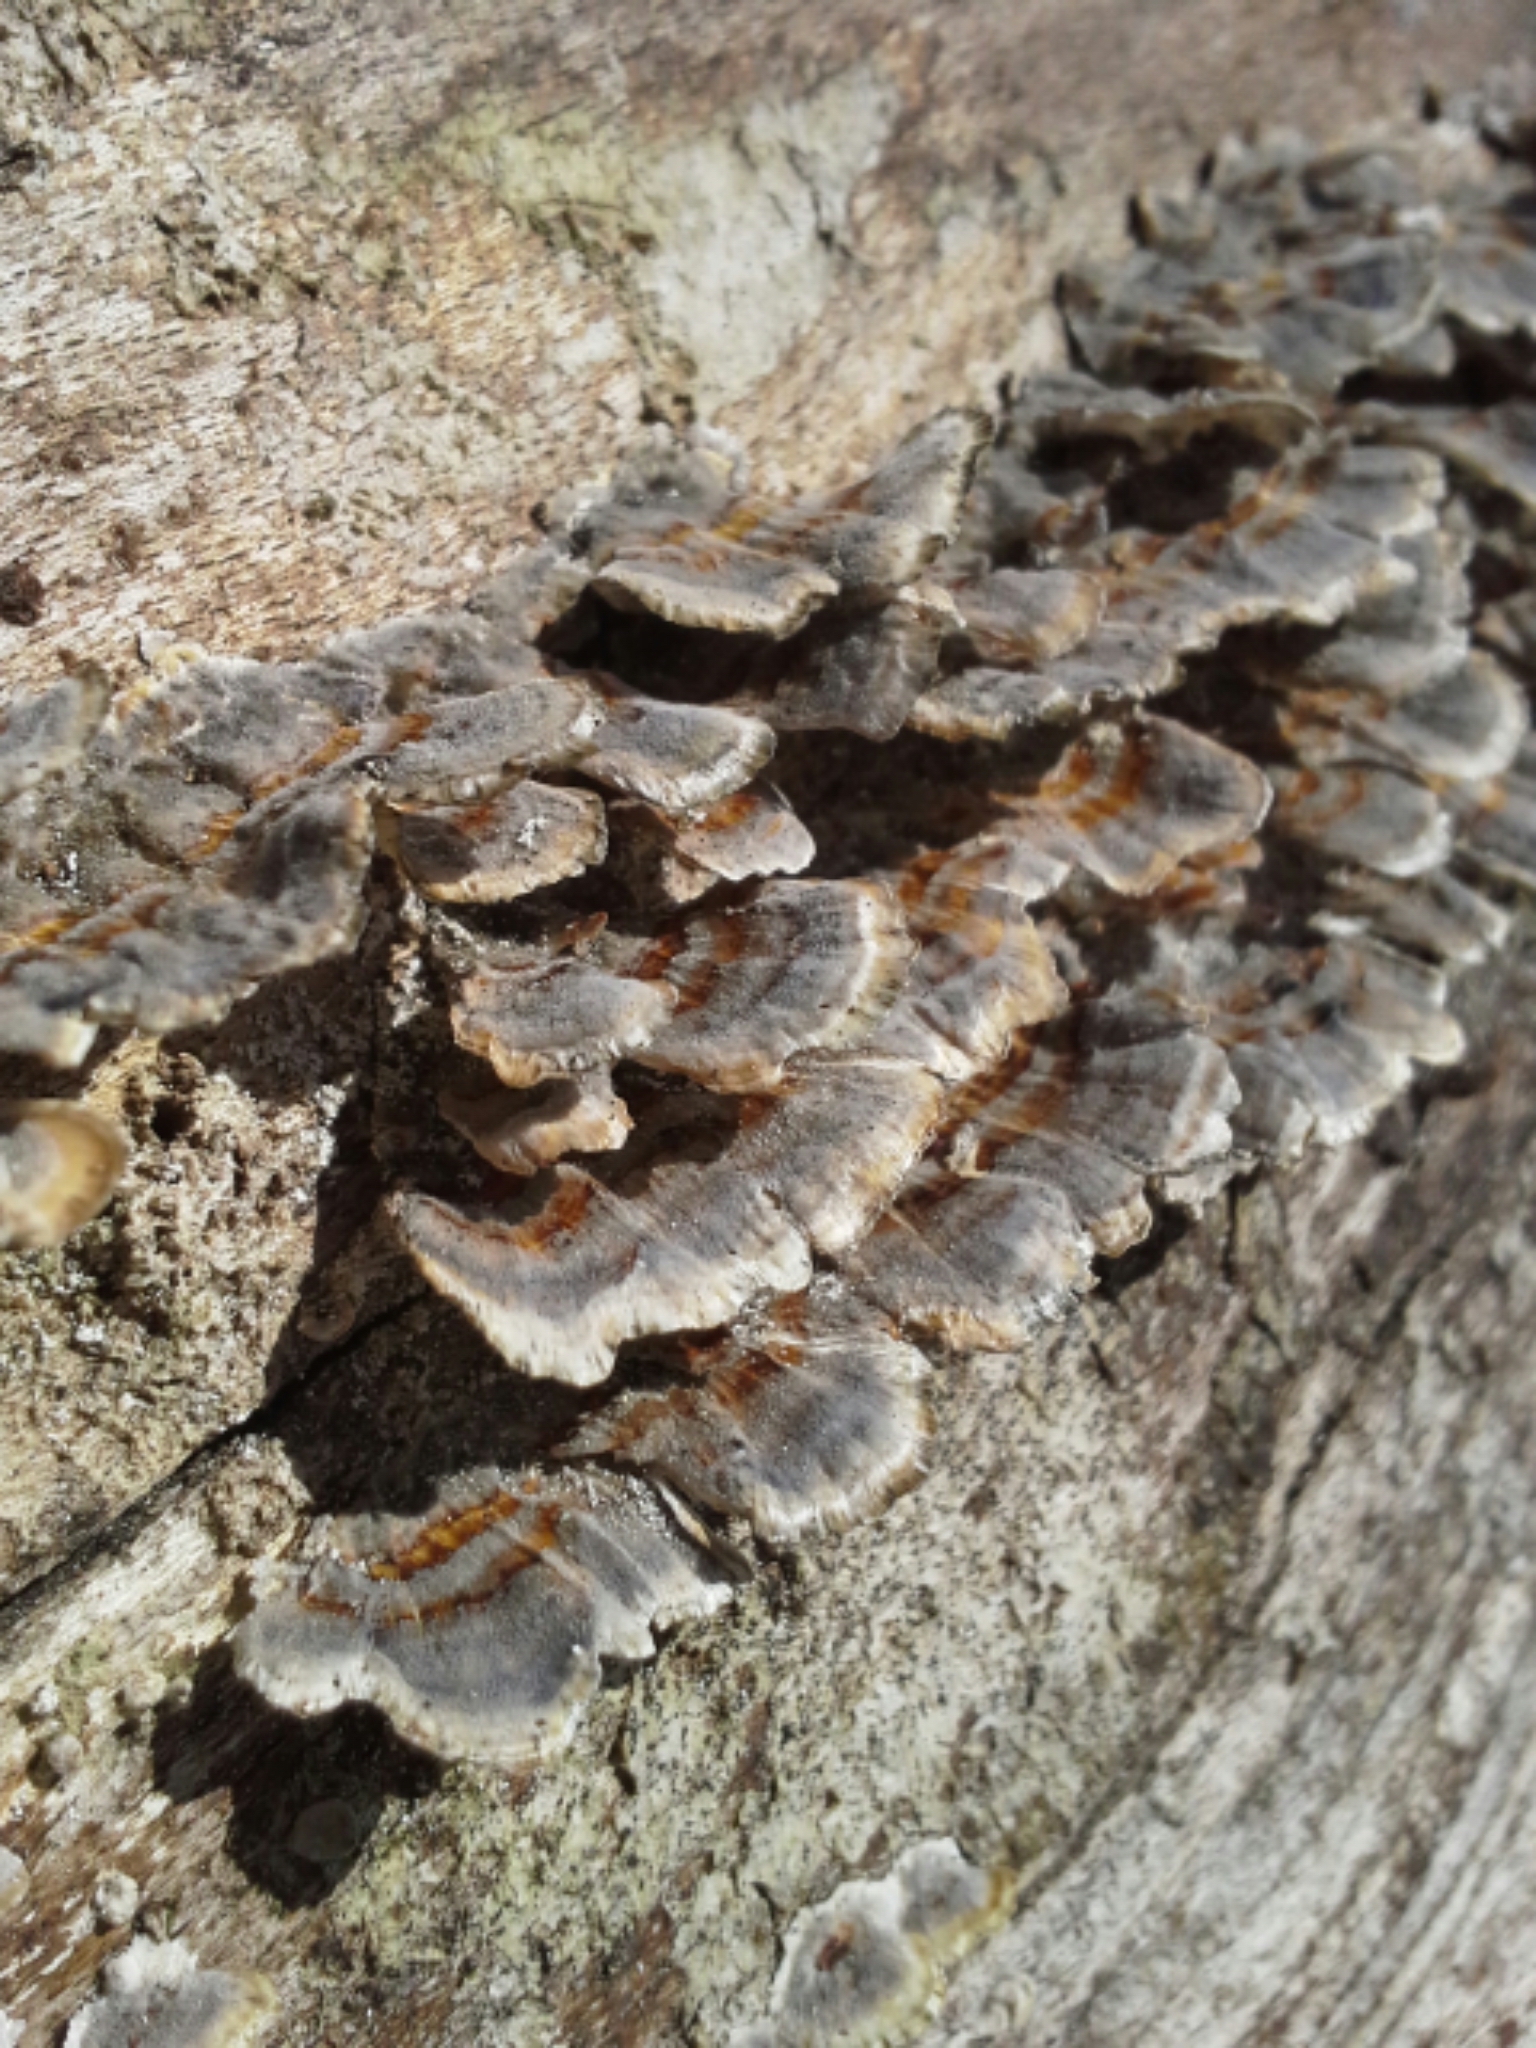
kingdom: Fungi
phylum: Basidiomycota
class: Agaricomycetes
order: Polyporales
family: Polyporaceae
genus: Trametes
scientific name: Trametes versicolor
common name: Turkeytail
